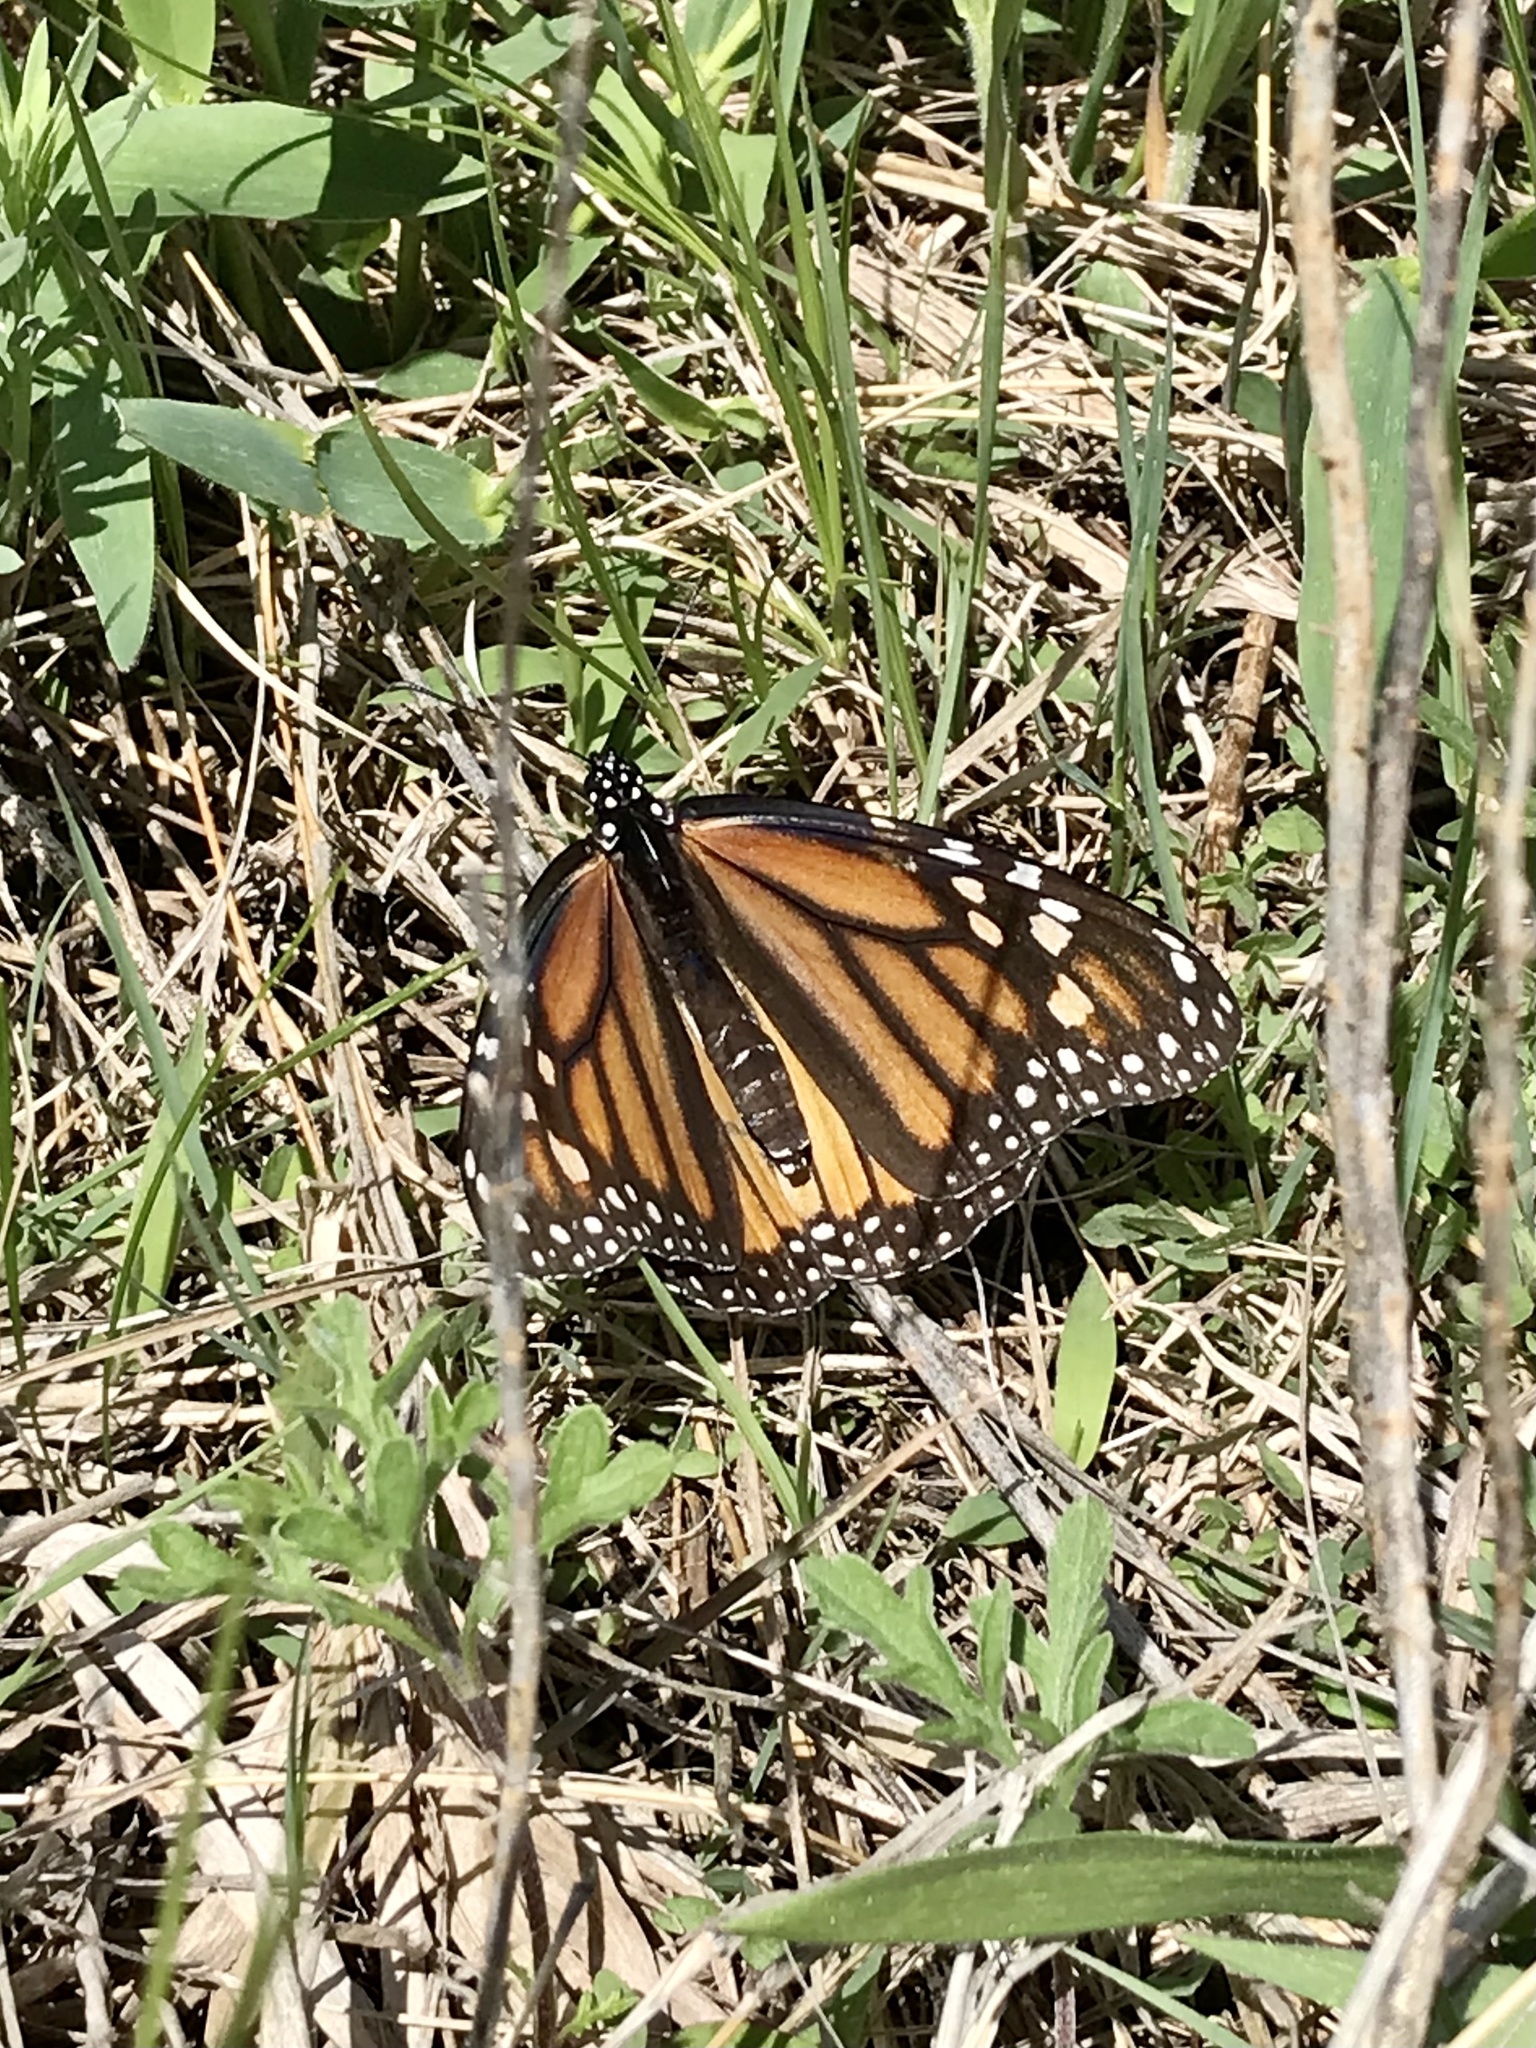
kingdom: Animalia
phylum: Arthropoda
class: Insecta
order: Lepidoptera
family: Nymphalidae
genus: Danaus
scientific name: Danaus plexippus
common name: Monarch
